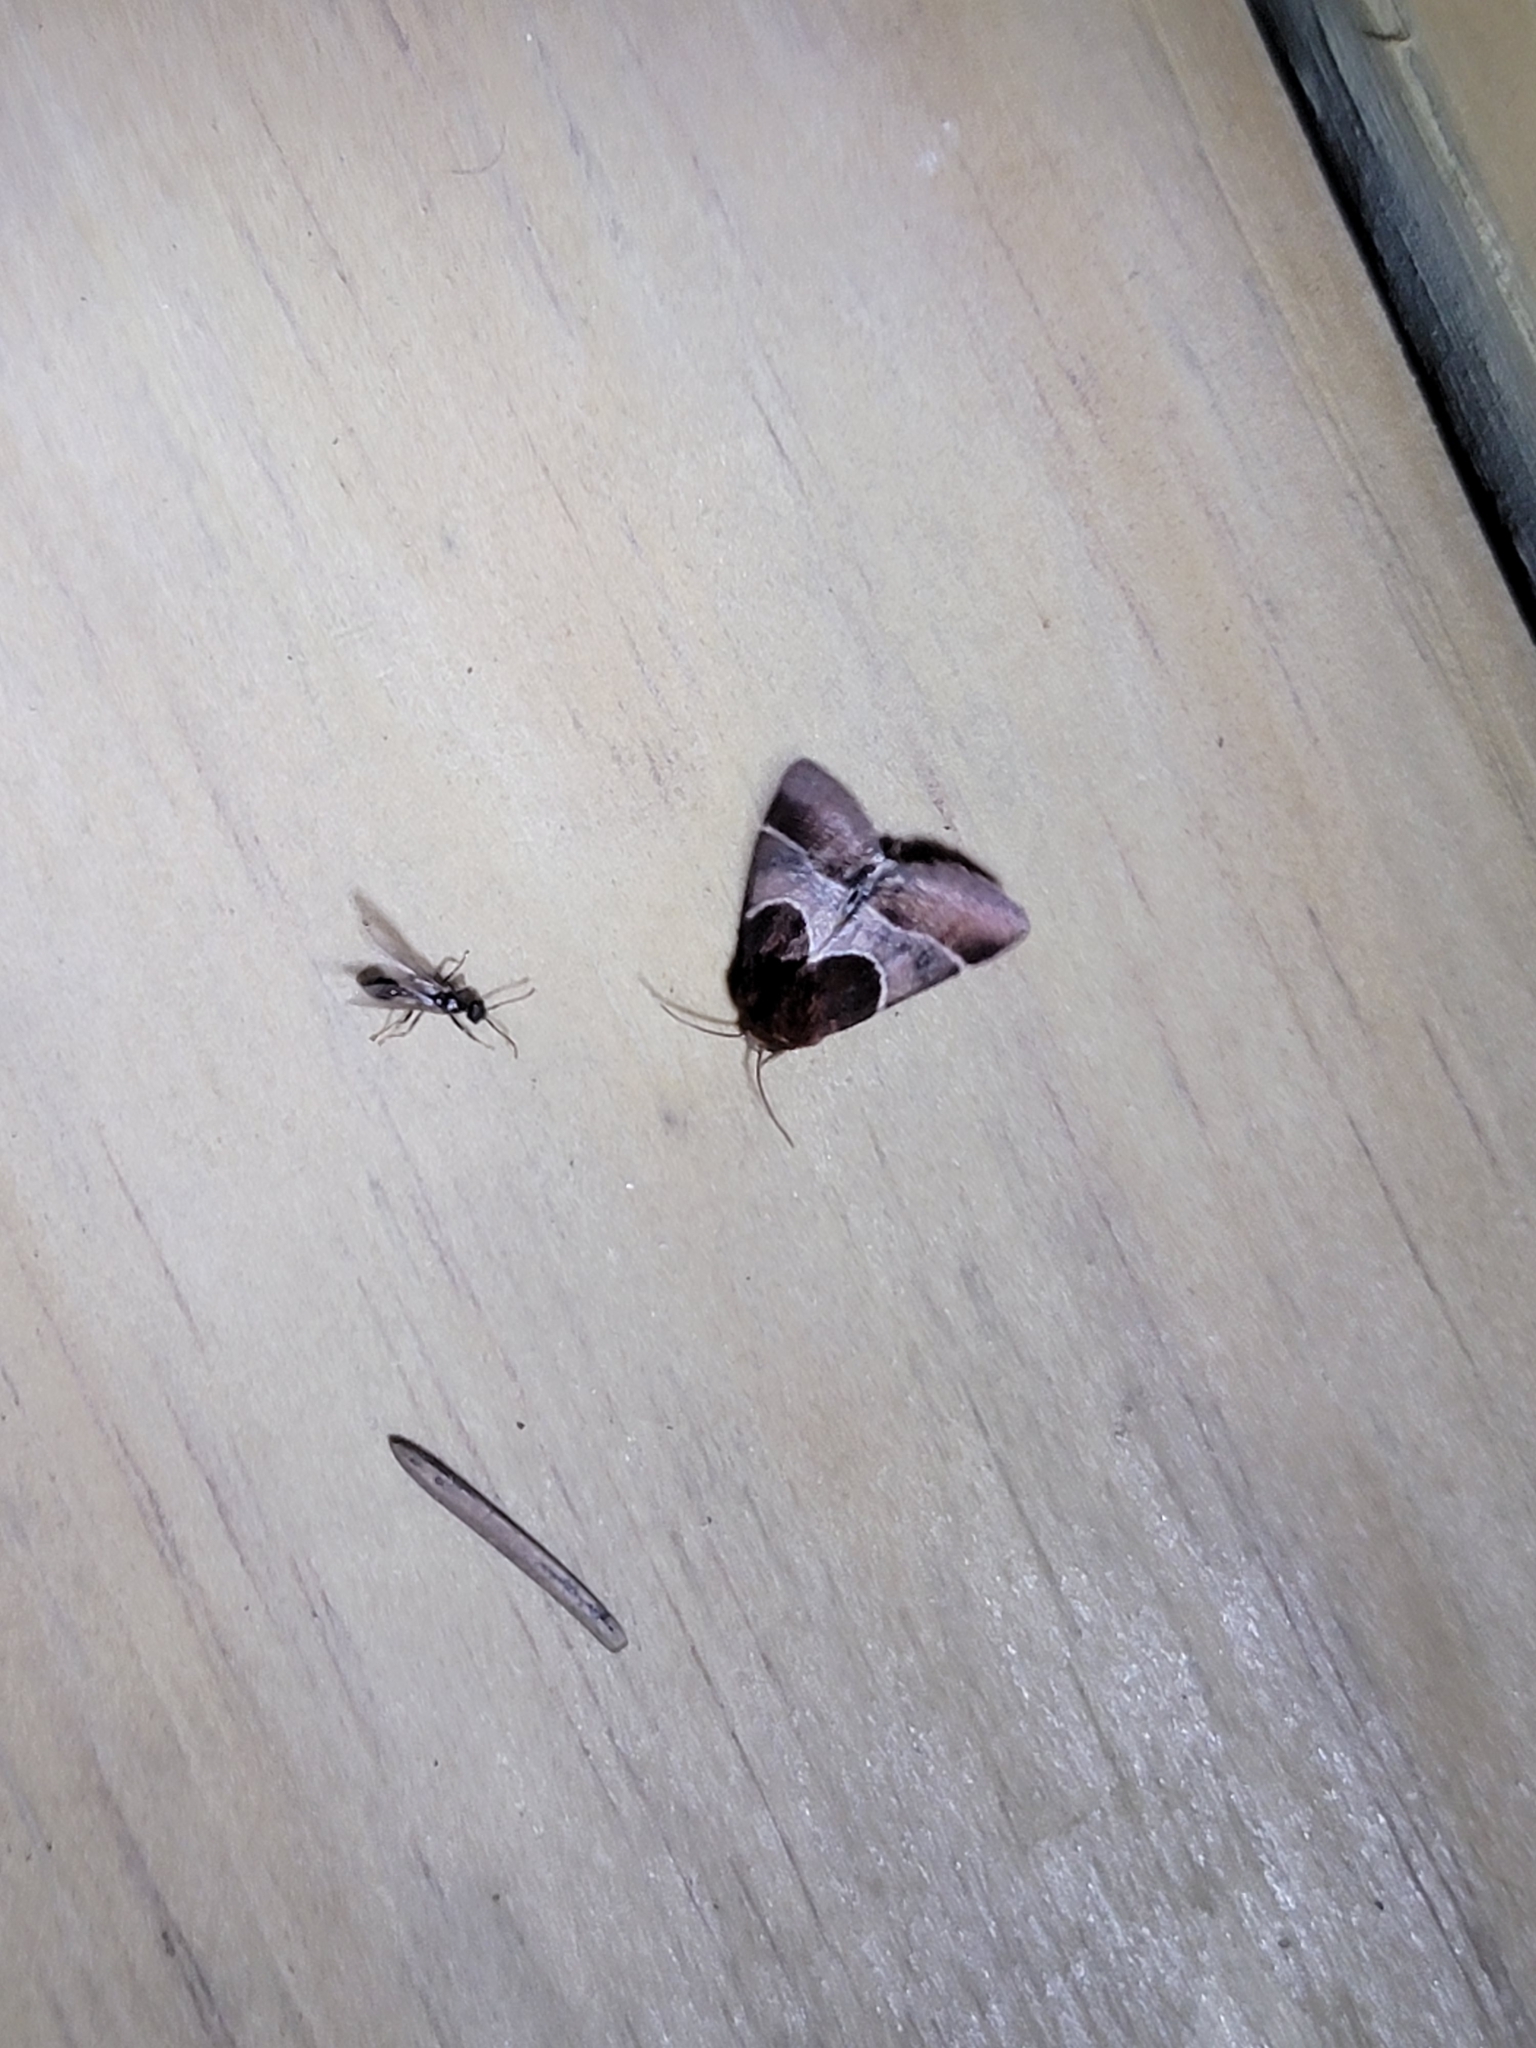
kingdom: Animalia
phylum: Arthropoda
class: Insecta
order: Lepidoptera
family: Noctuidae
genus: Schinia
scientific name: Schinia arcigera
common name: Arcigera flower moth
